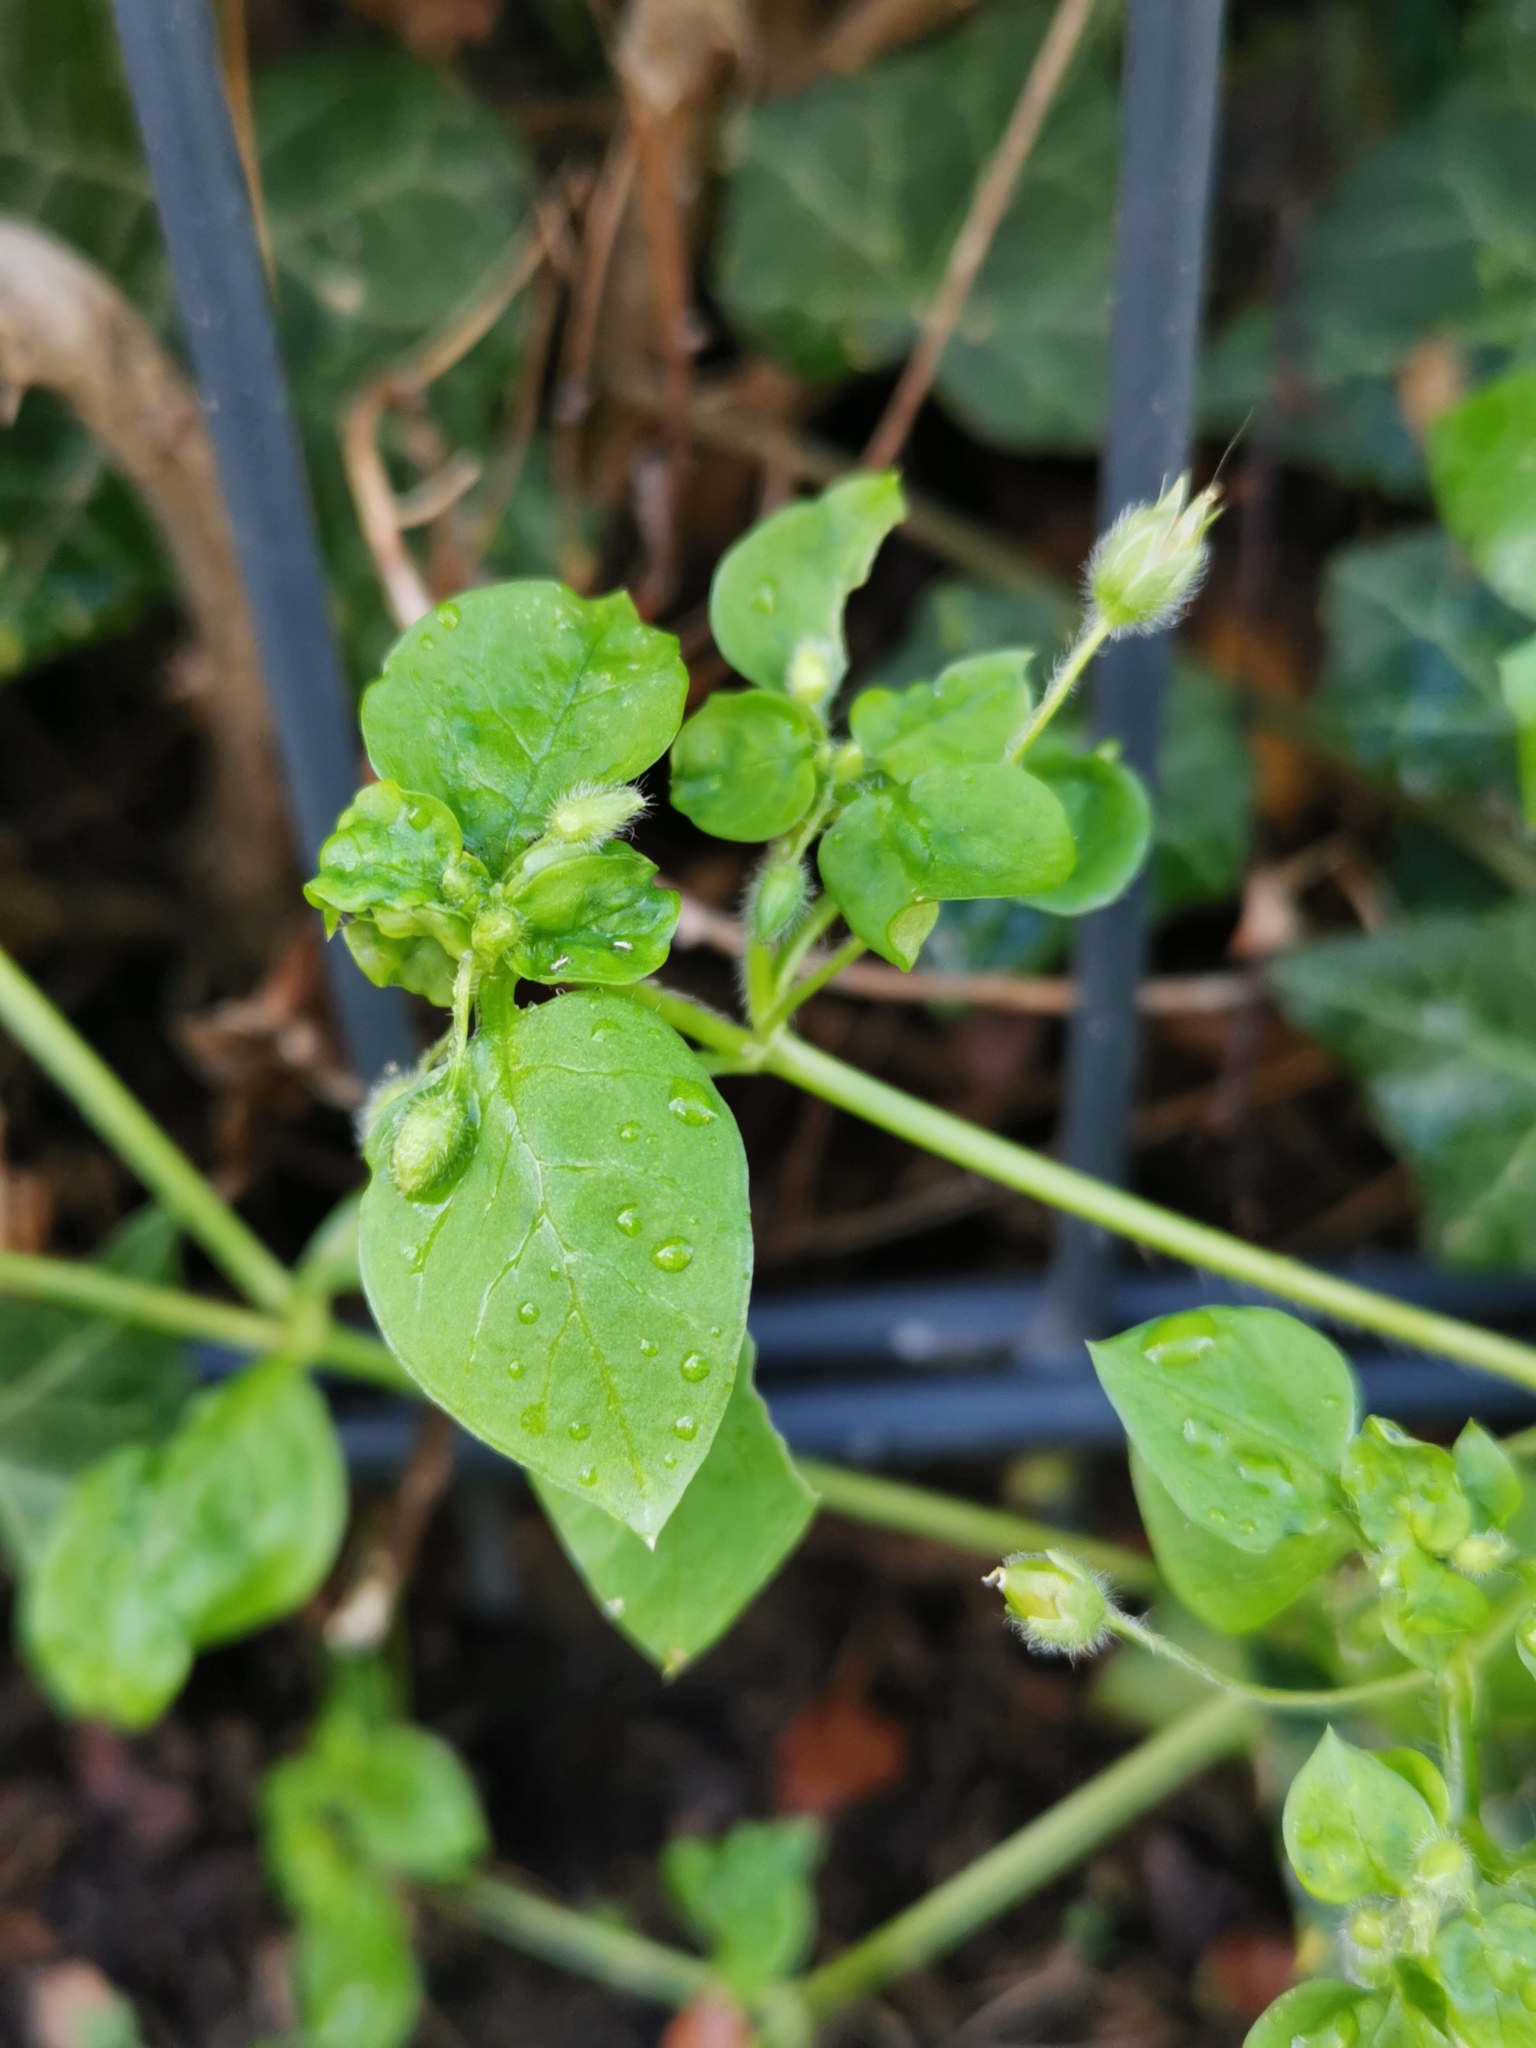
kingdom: Plantae
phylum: Tracheophyta
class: Magnoliopsida
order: Caryophyllales
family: Caryophyllaceae
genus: Stellaria
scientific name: Stellaria media
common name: Common chickweed
